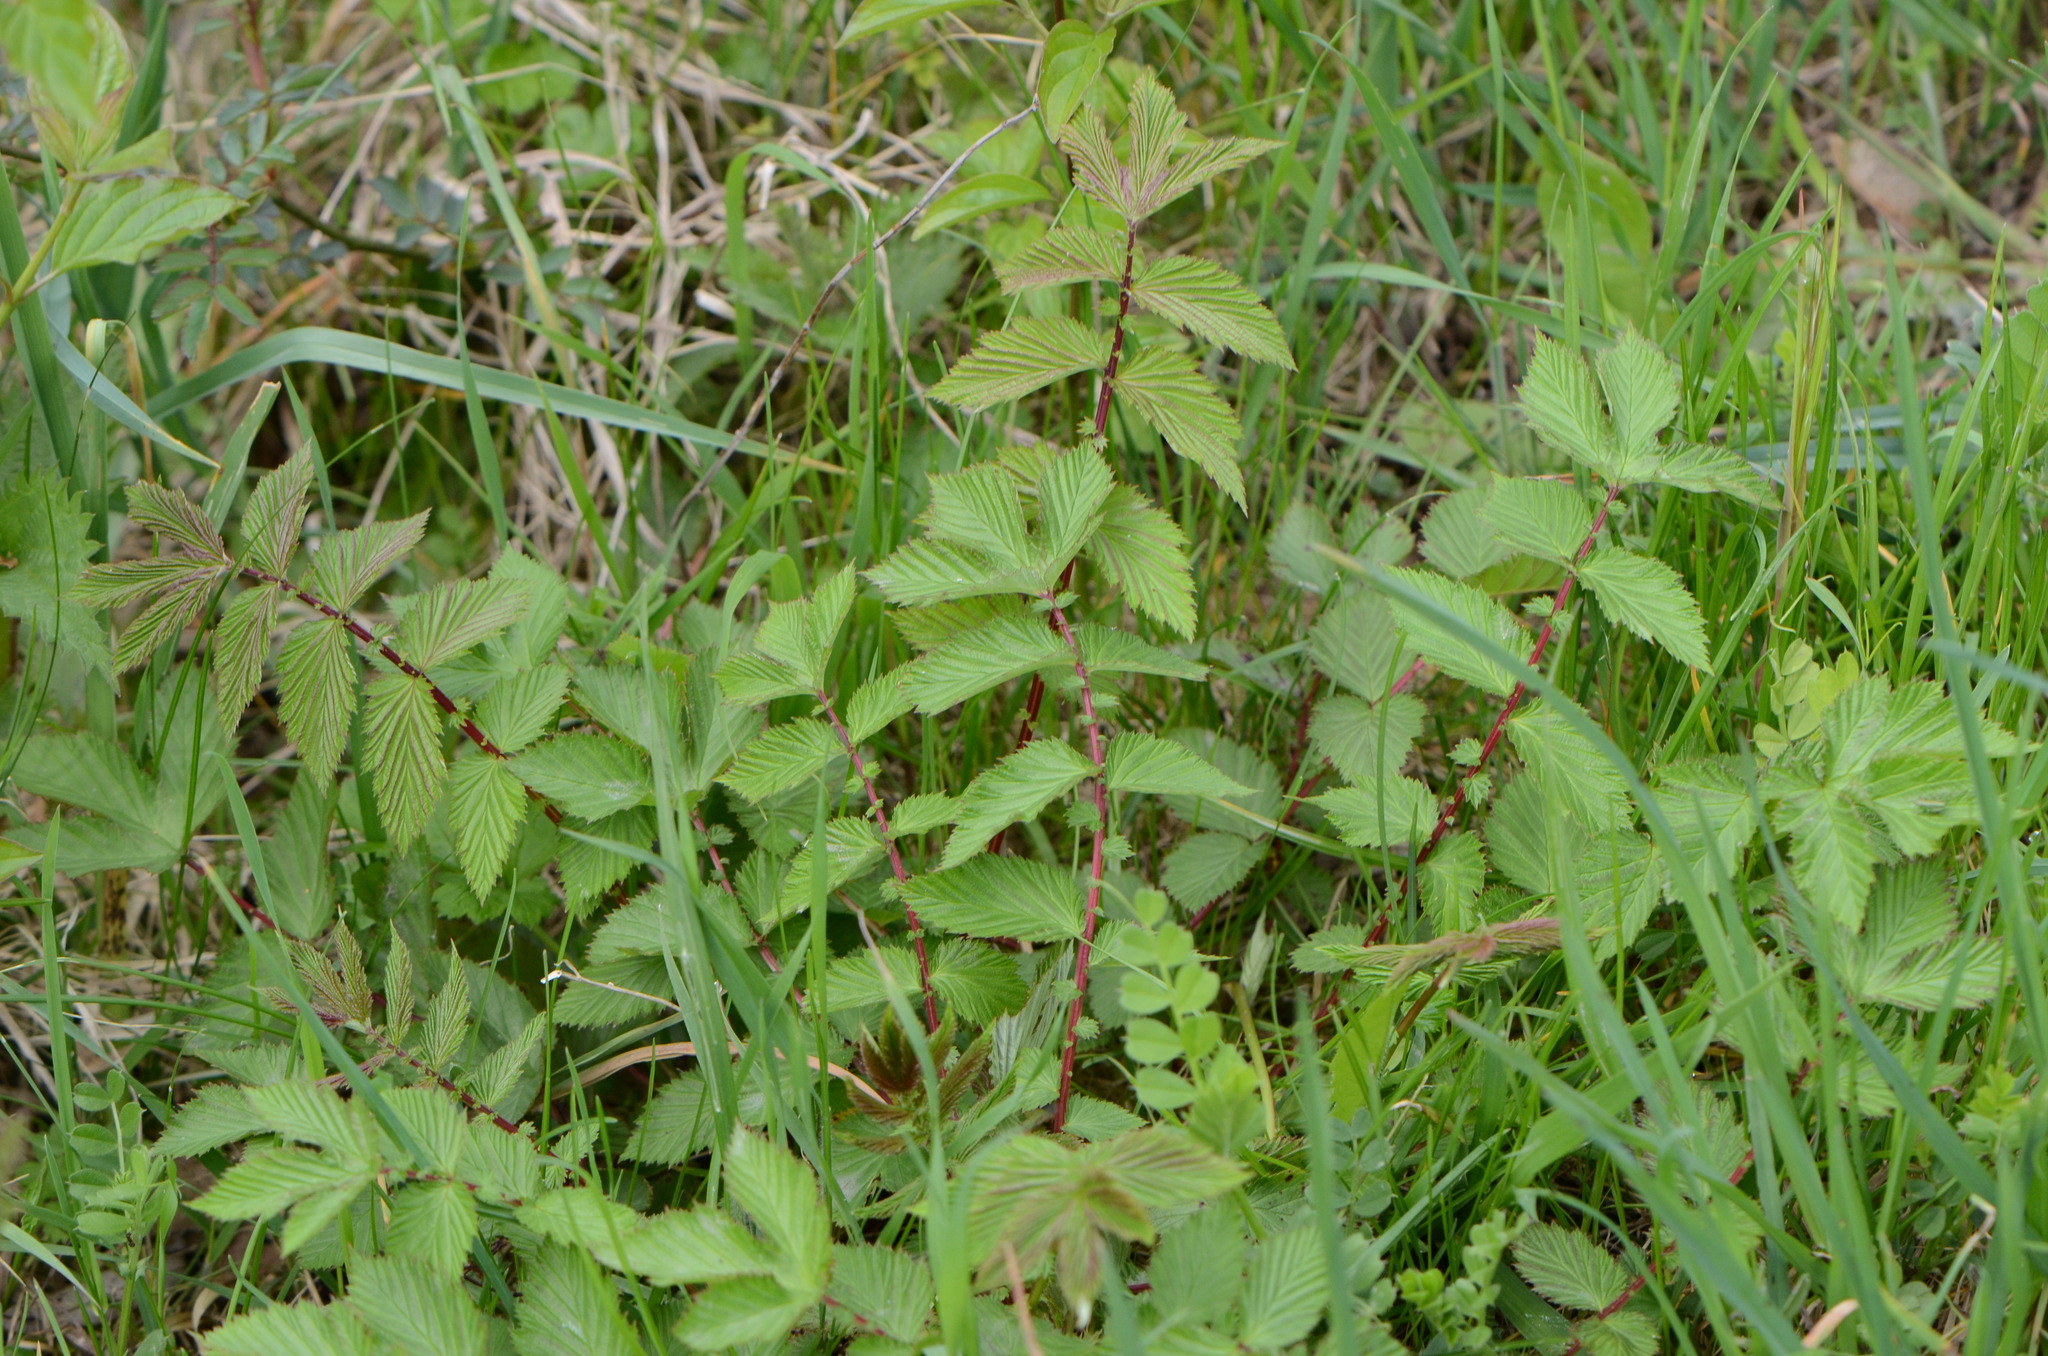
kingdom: Plantae
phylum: Tracheophyta
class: Magnoliopsida
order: Rosales
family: Rosaceae
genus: Filipendula
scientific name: Filipendula ulmaria
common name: Meadowsweet
